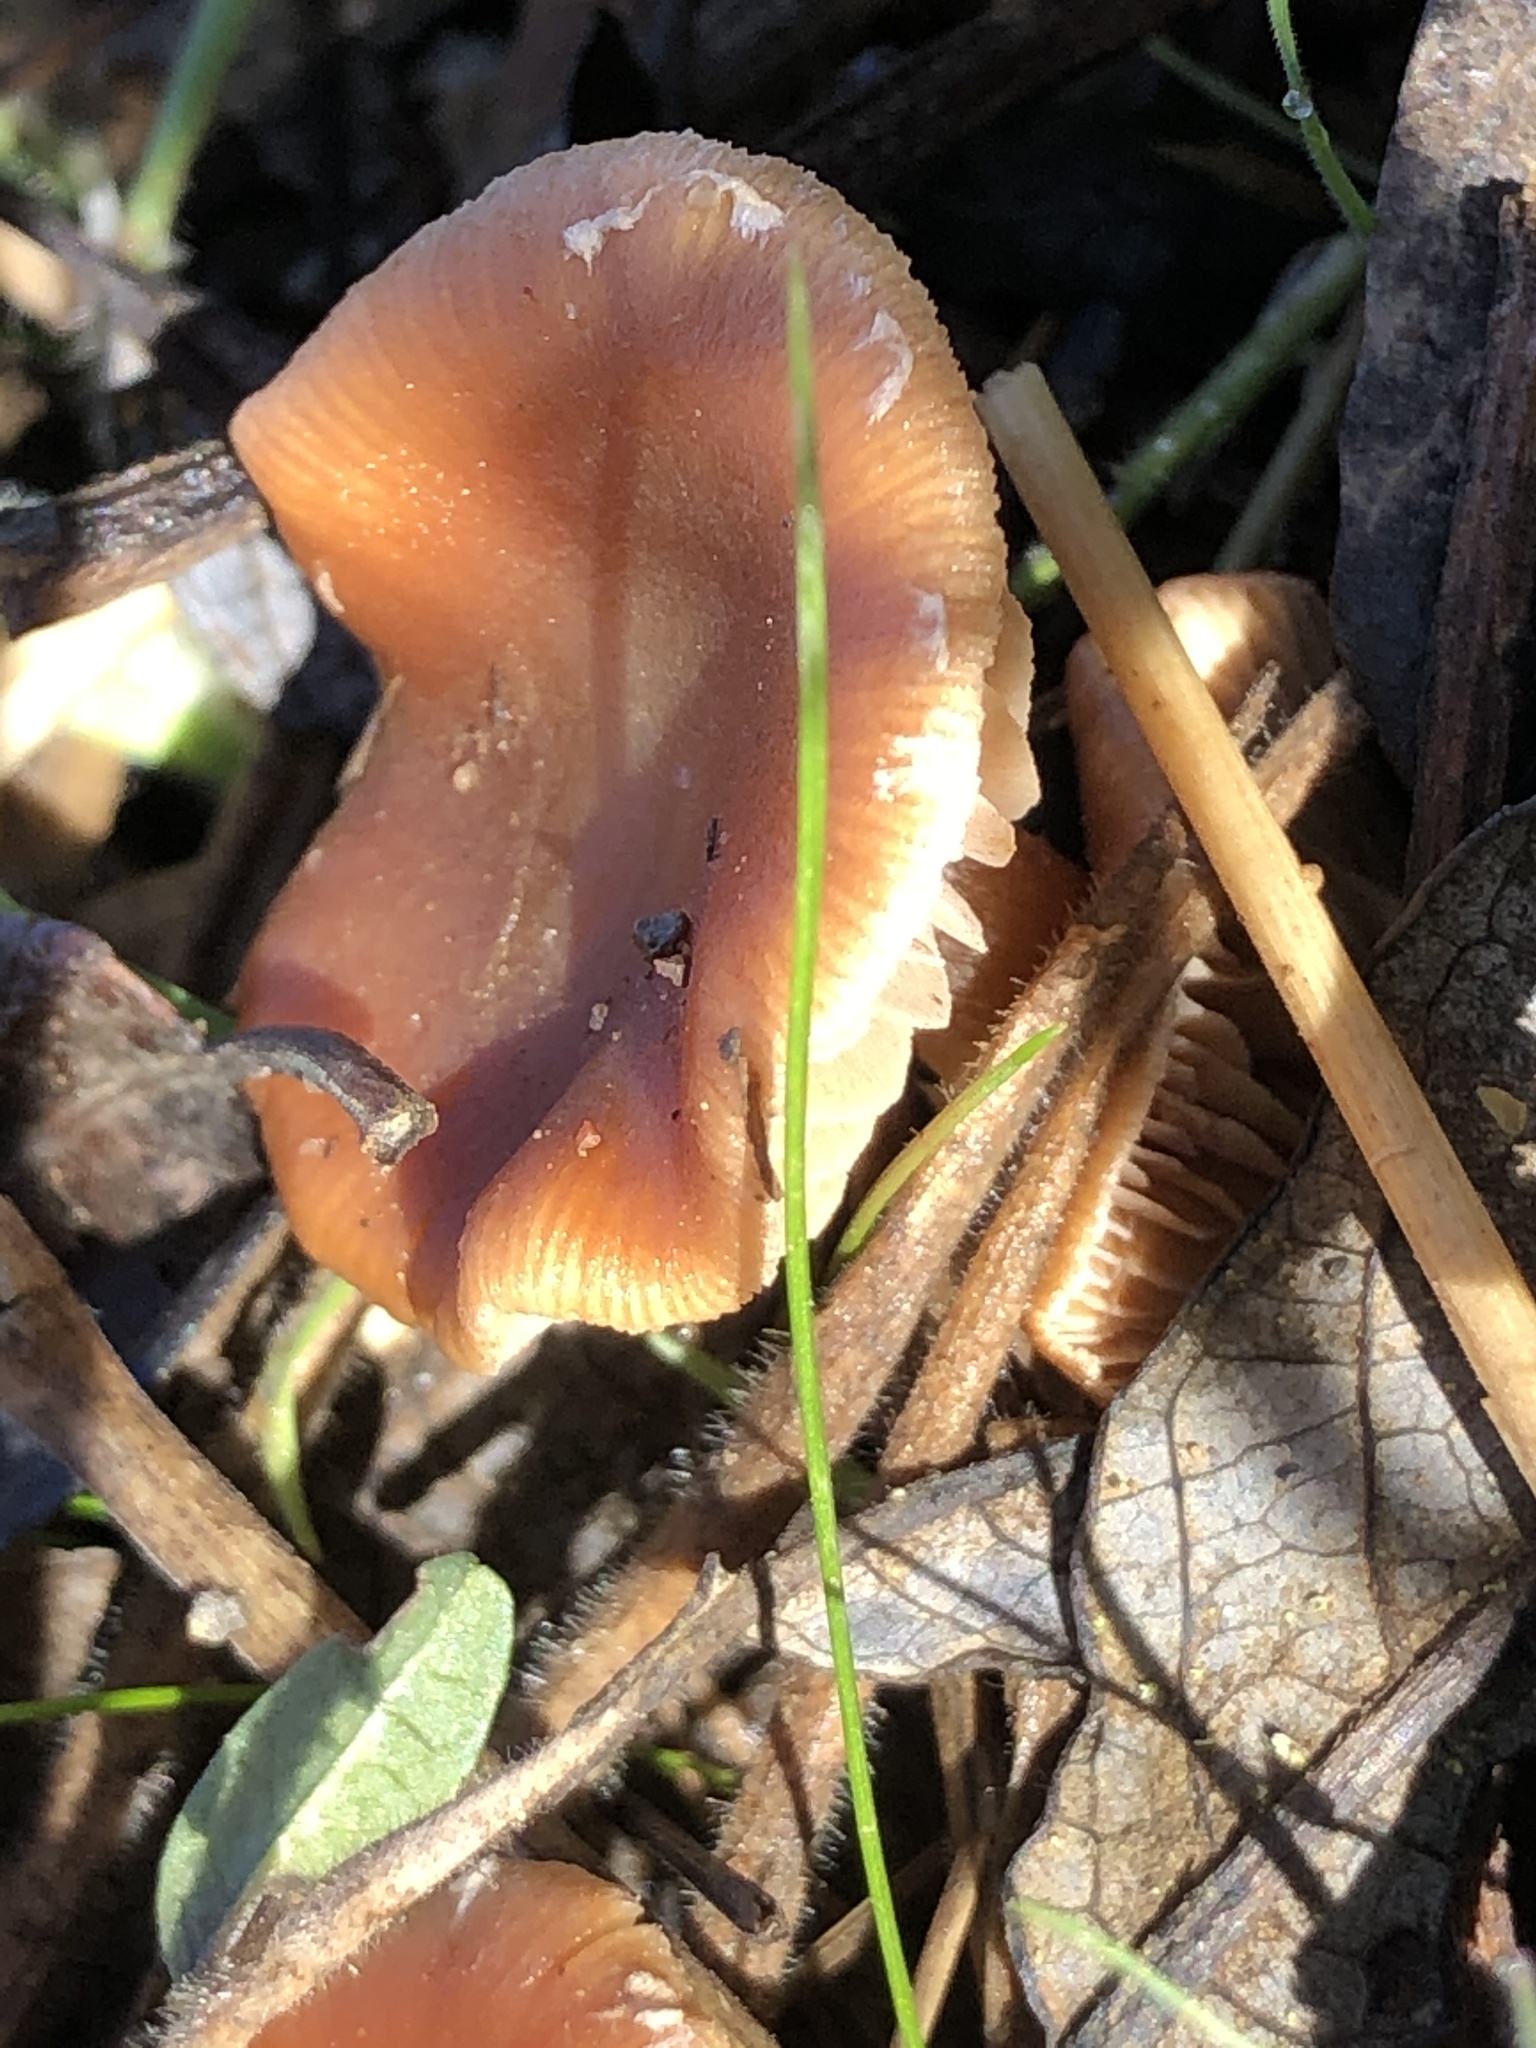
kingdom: Fungi
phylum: Basidiomycota
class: Agaricomycetes
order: Agaricales
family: Tubariaceae
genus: Tubaria
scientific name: Tubaria furfuracea
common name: Scurfy twiglet
